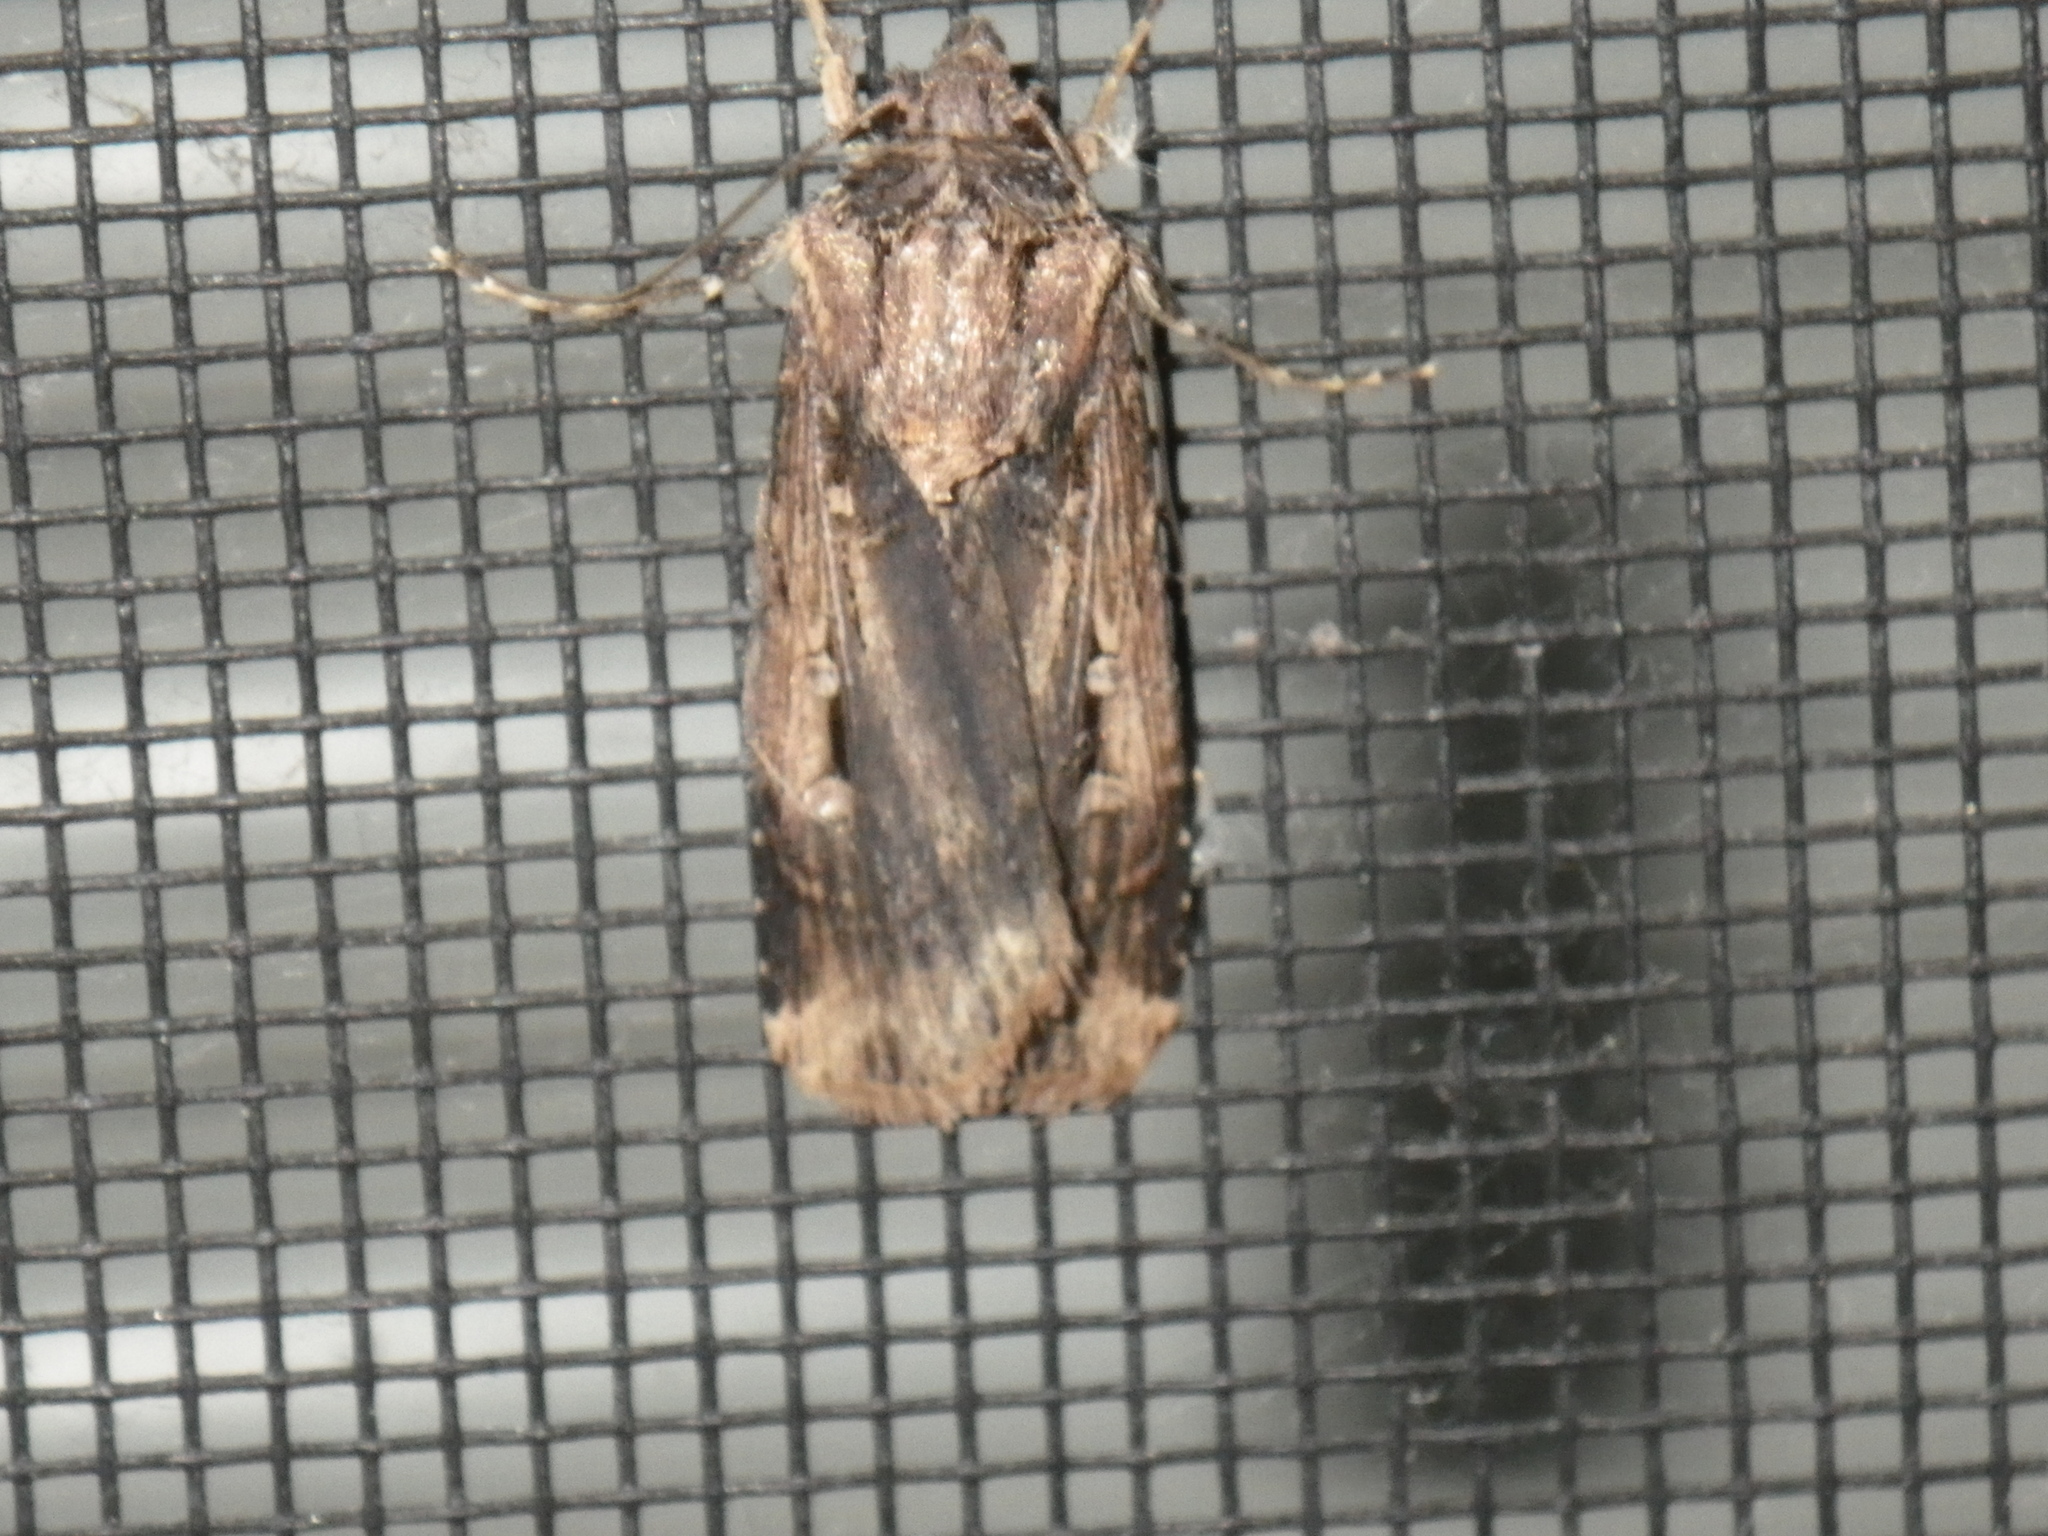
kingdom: Animalia
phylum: Arthropoda
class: Insecta
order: Lepidoptera
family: Noctuidae
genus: Feltia
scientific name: Feltia subterranea
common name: Granulate cutworm
